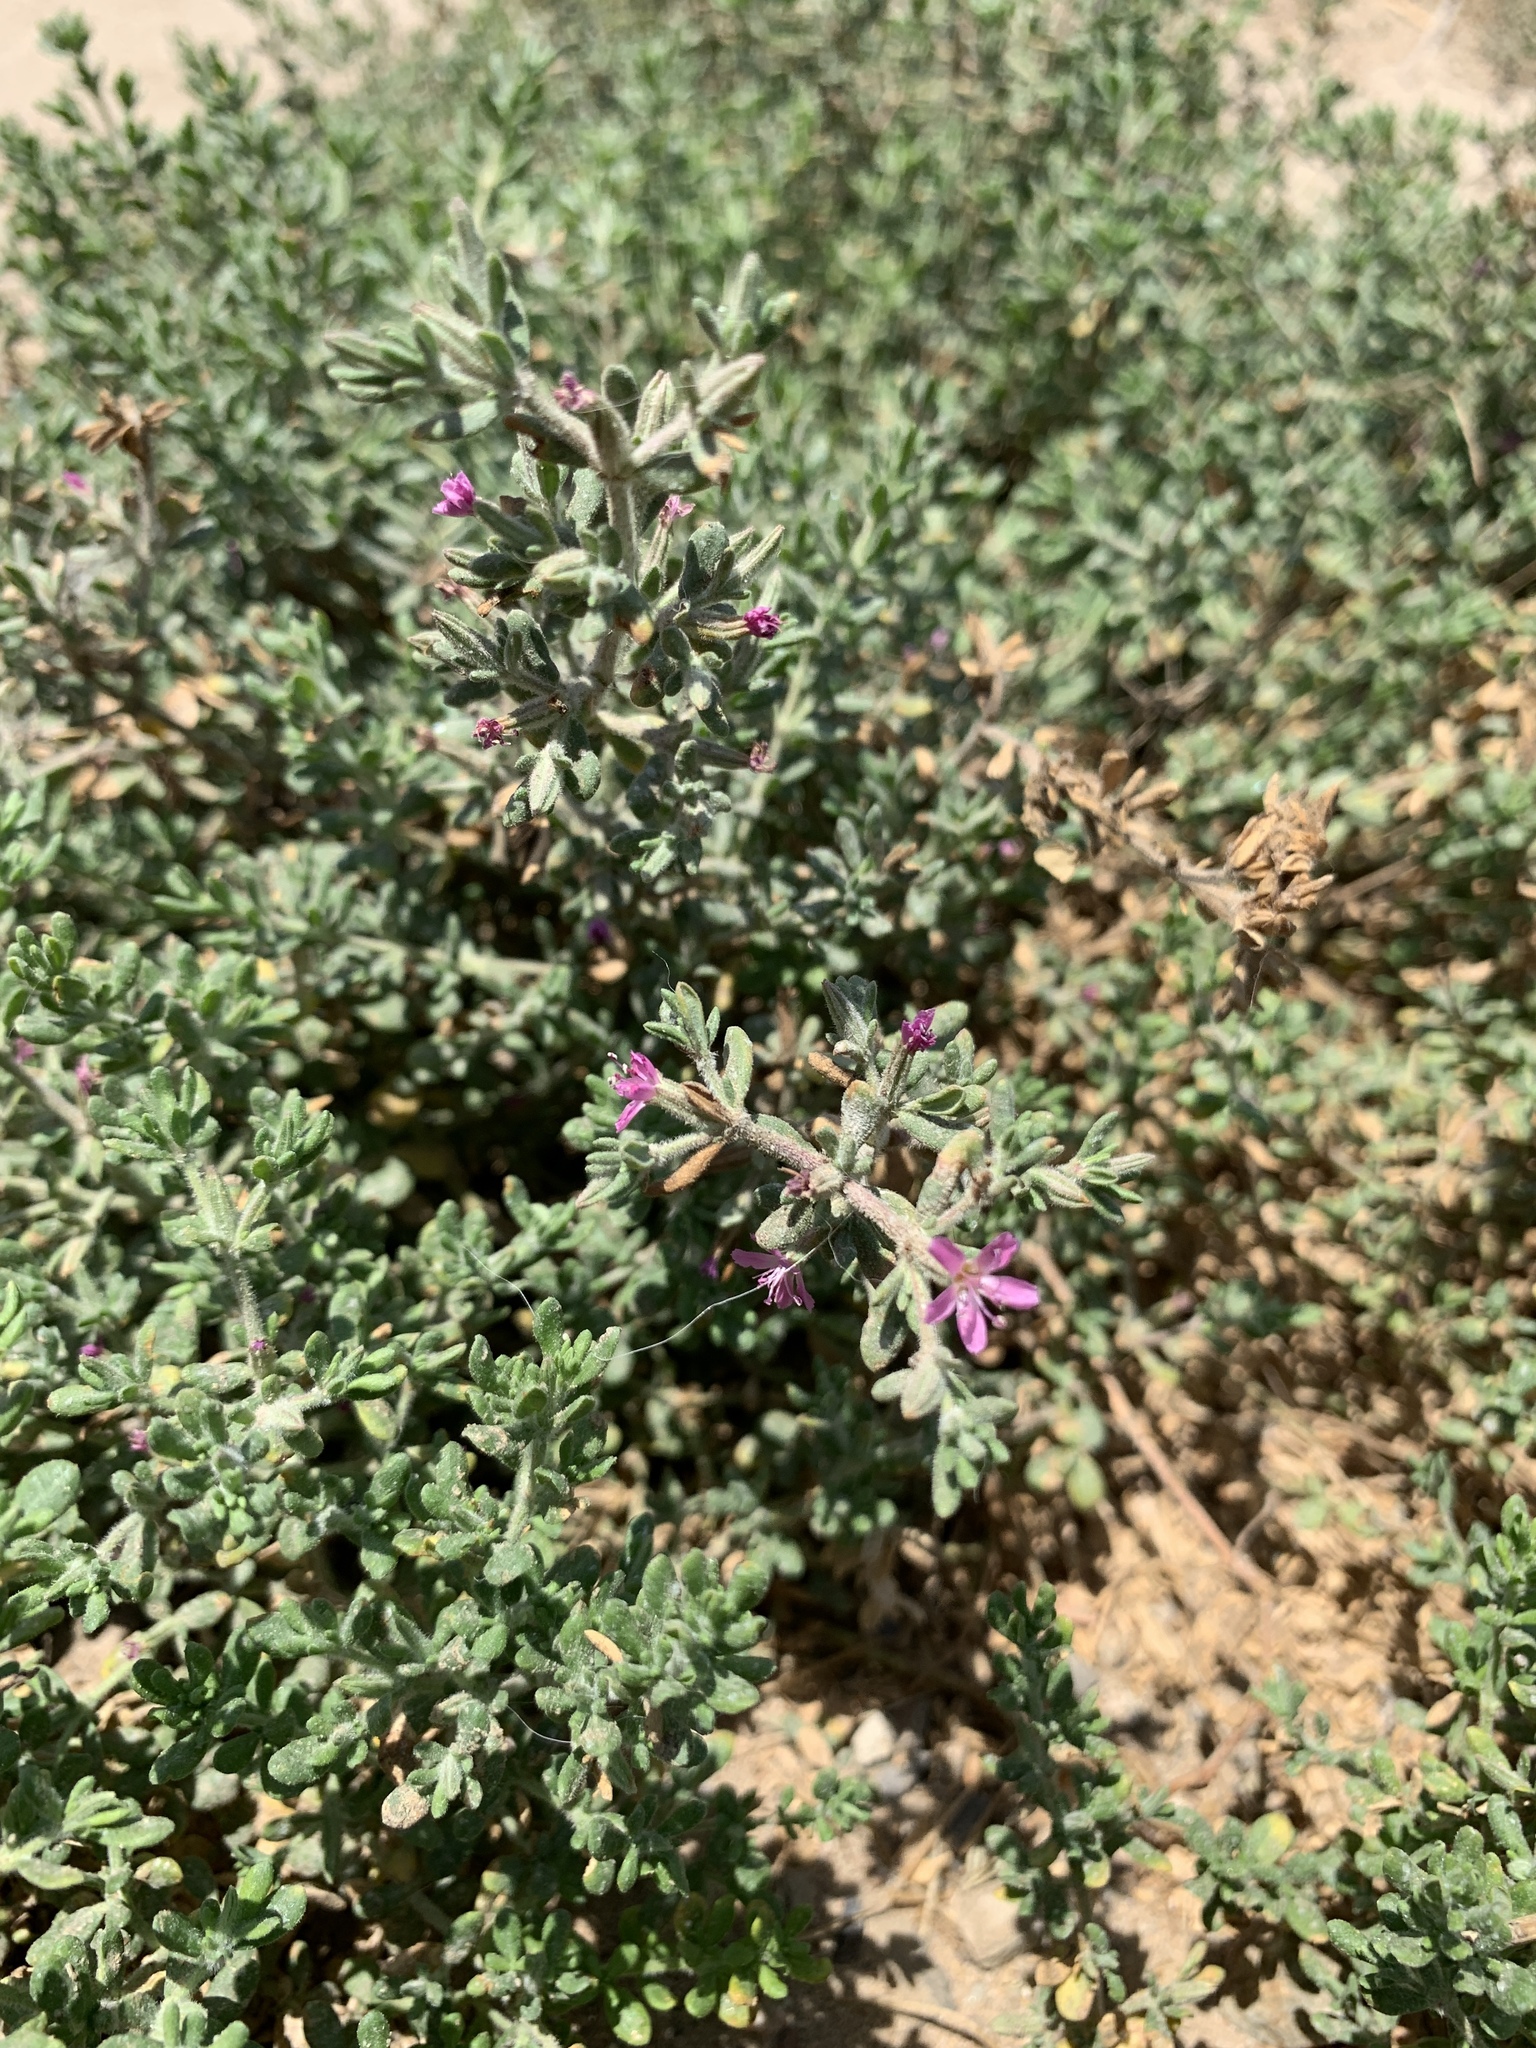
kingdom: Plantae
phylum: Tracheophyta
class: Magnoliopsida
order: Caryophyllales
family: Frankeniaceae
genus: Frankenia
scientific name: Frankenia salina
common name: Alkali seaheath
